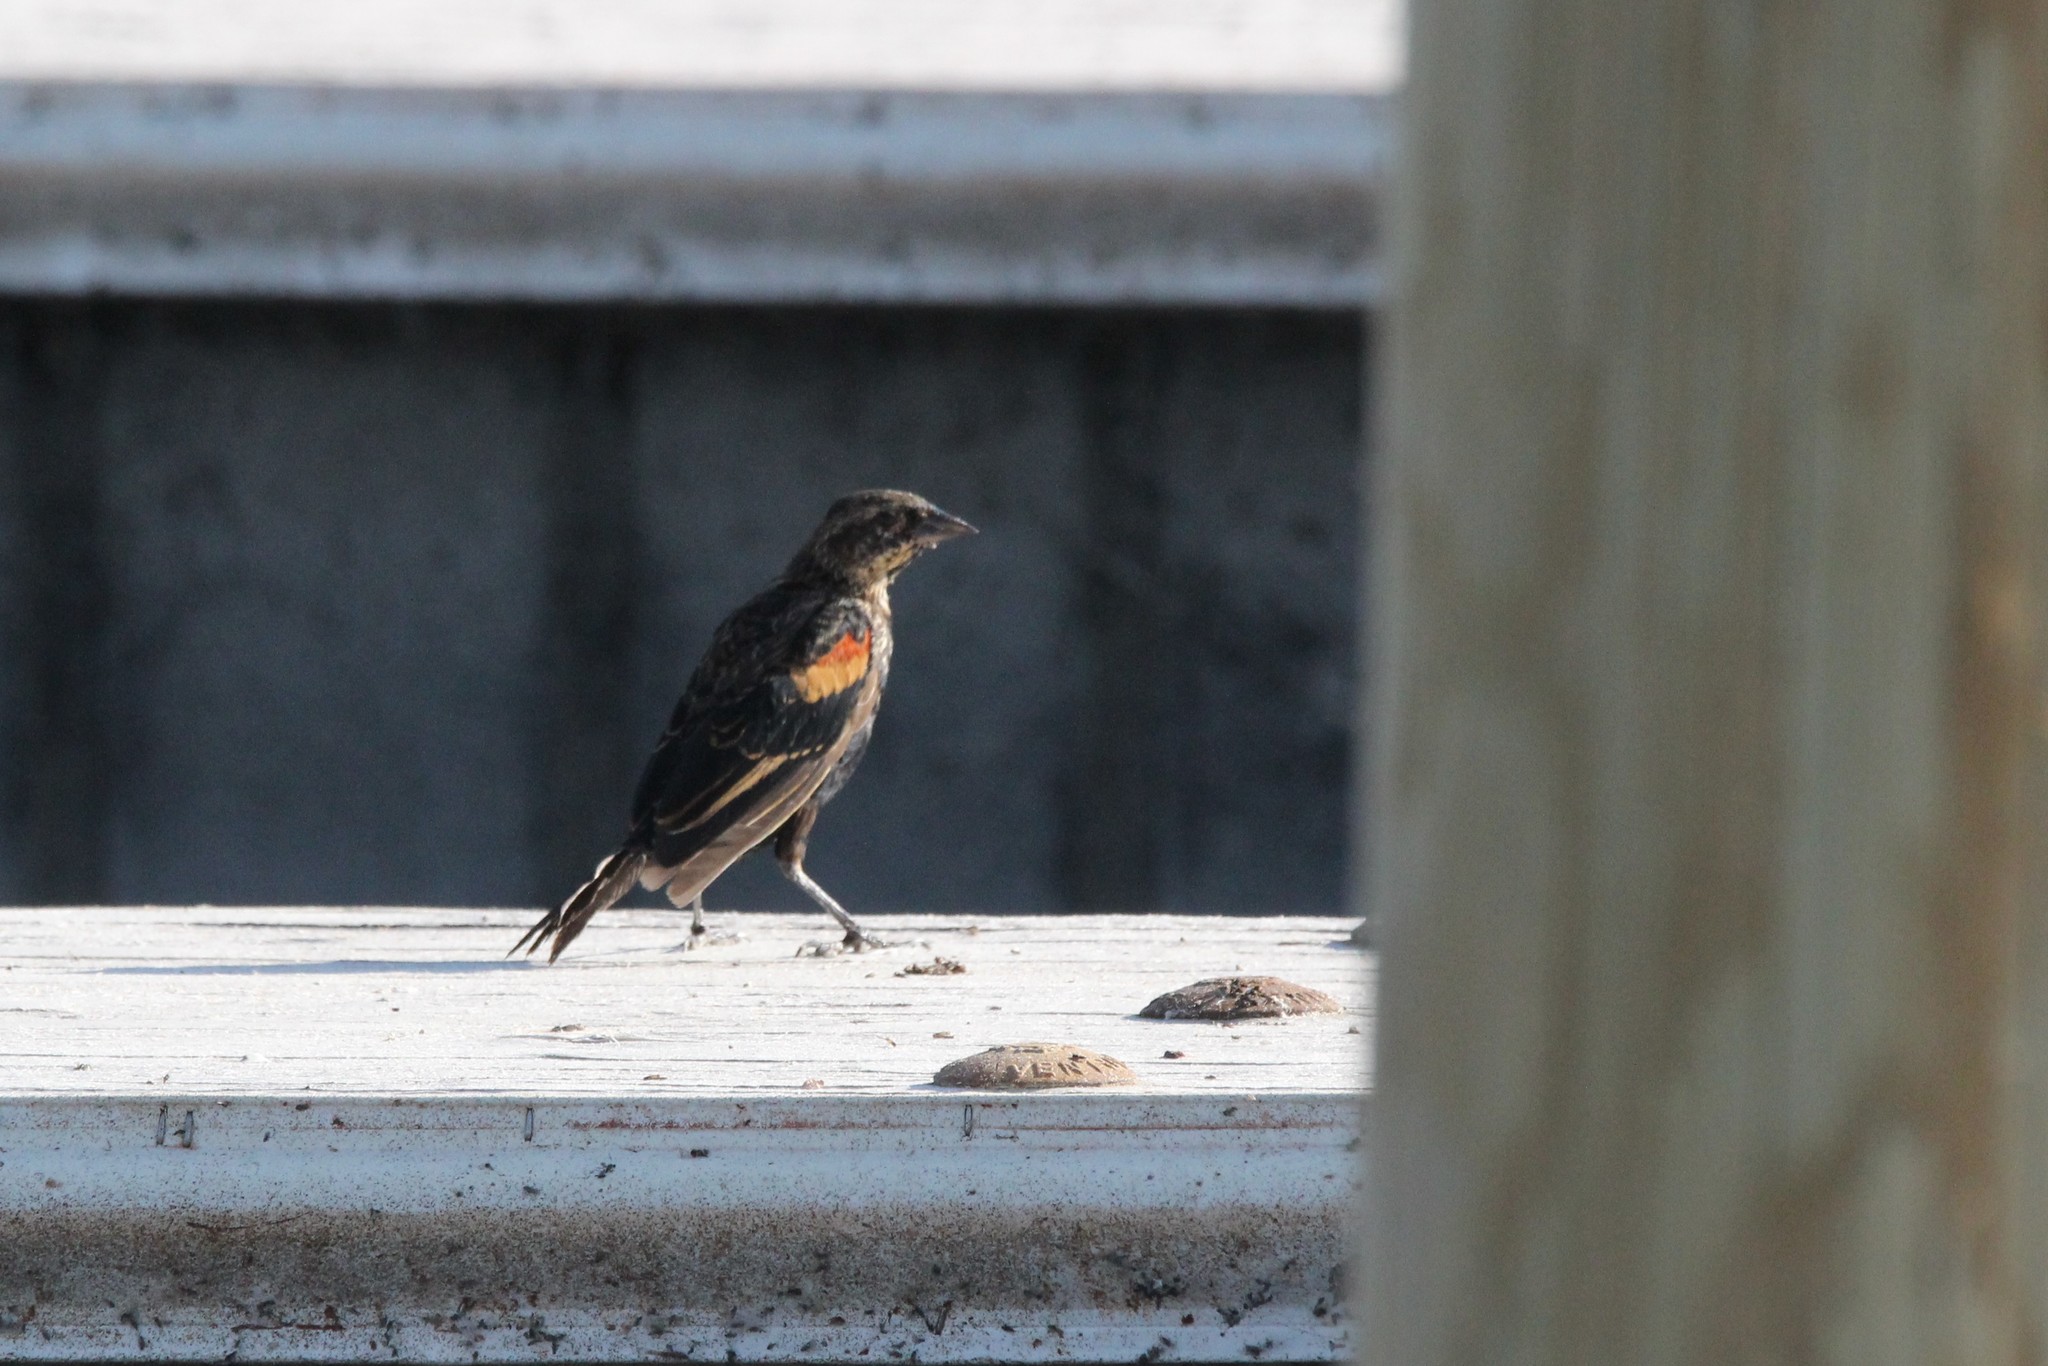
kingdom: Animalia
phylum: Chordata
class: Aves
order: Passeriformes
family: Icteridae
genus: Agelaius
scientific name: Agelaius phoeniceus
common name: Red-winged blackbird
